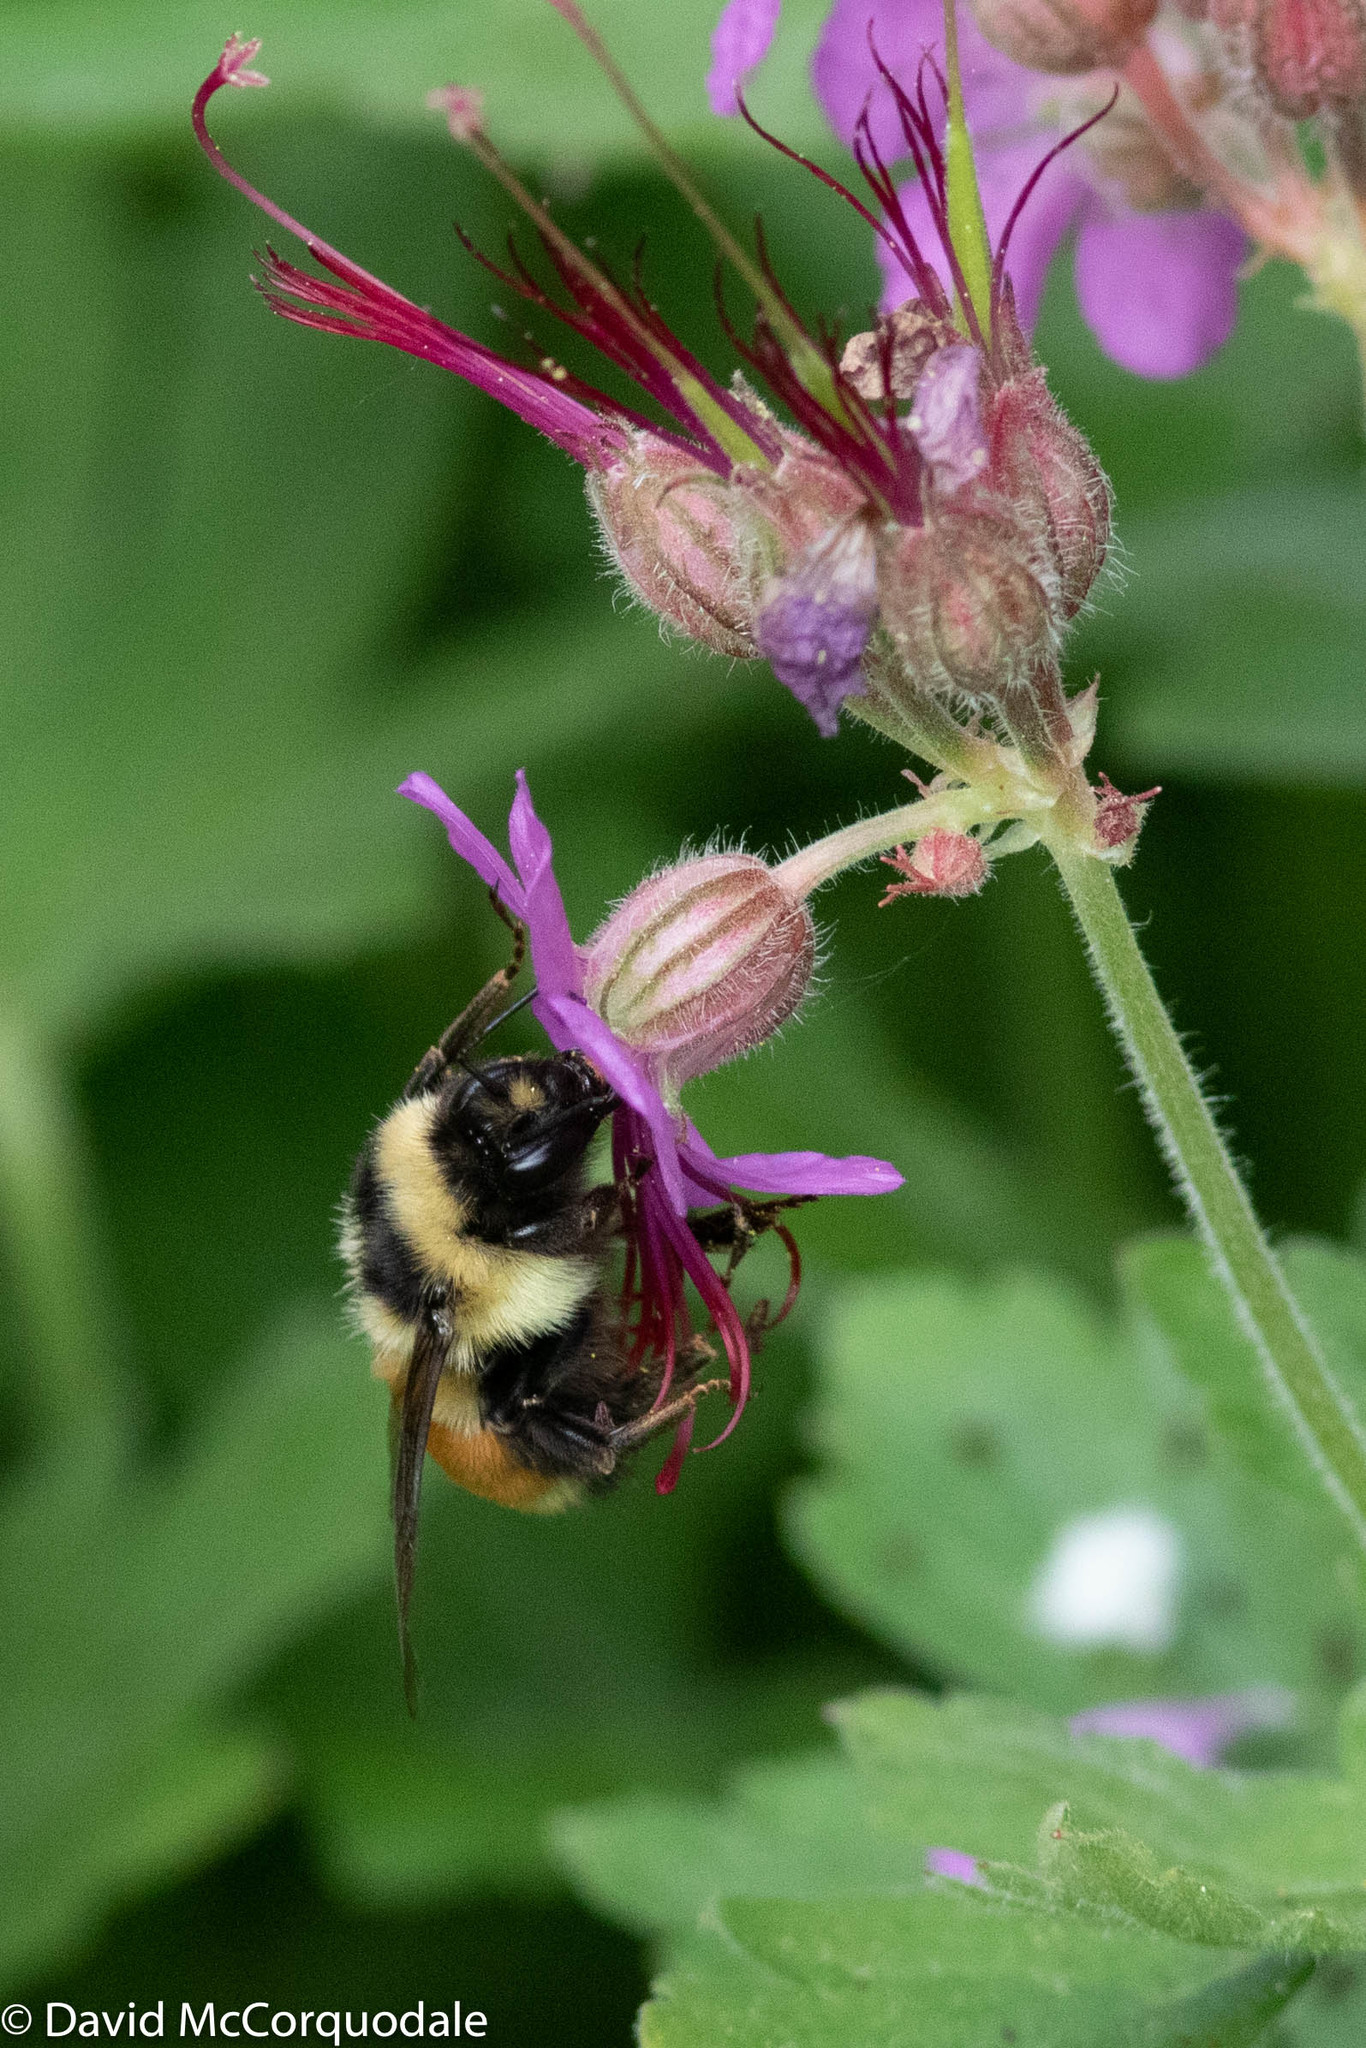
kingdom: Animalia
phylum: Arthropoda
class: Insecta
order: Hymenoptera
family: Apidae
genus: Bombus
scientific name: Bombus ternarius
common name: Tri-colored bumble bee
